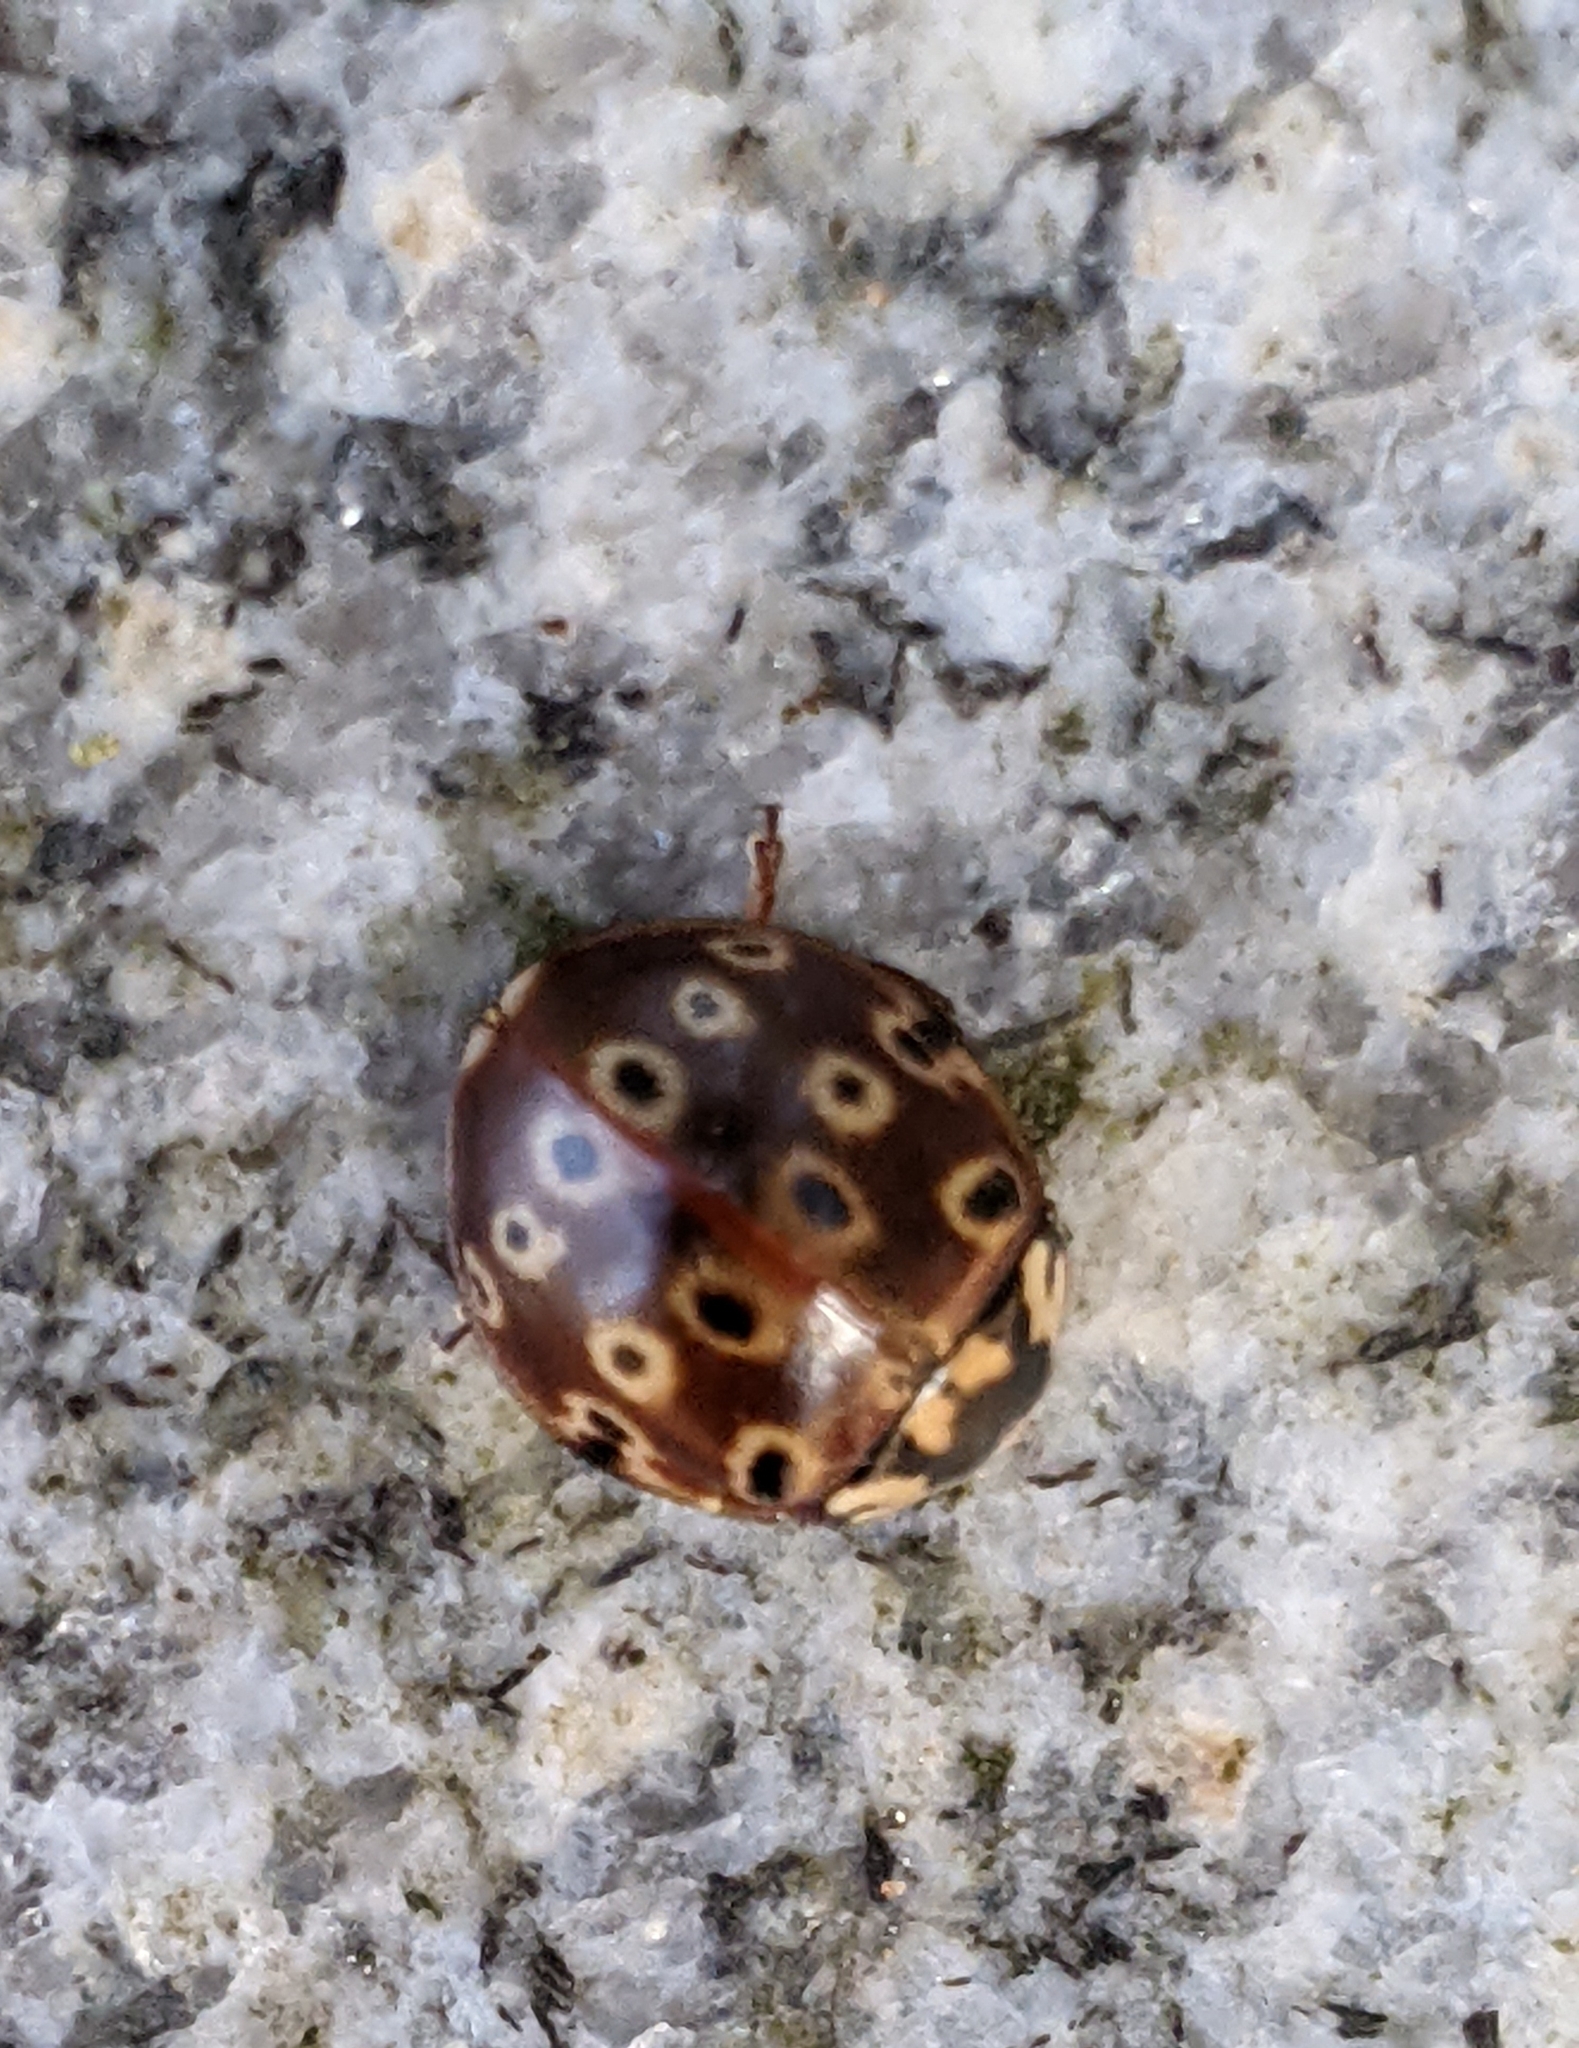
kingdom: Animalia
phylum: Arthropoda
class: Insecta
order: Coleoptera
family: Coccinellidae
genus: Anatis
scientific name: Anatis mali
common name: Eye-spotted lady beetle
